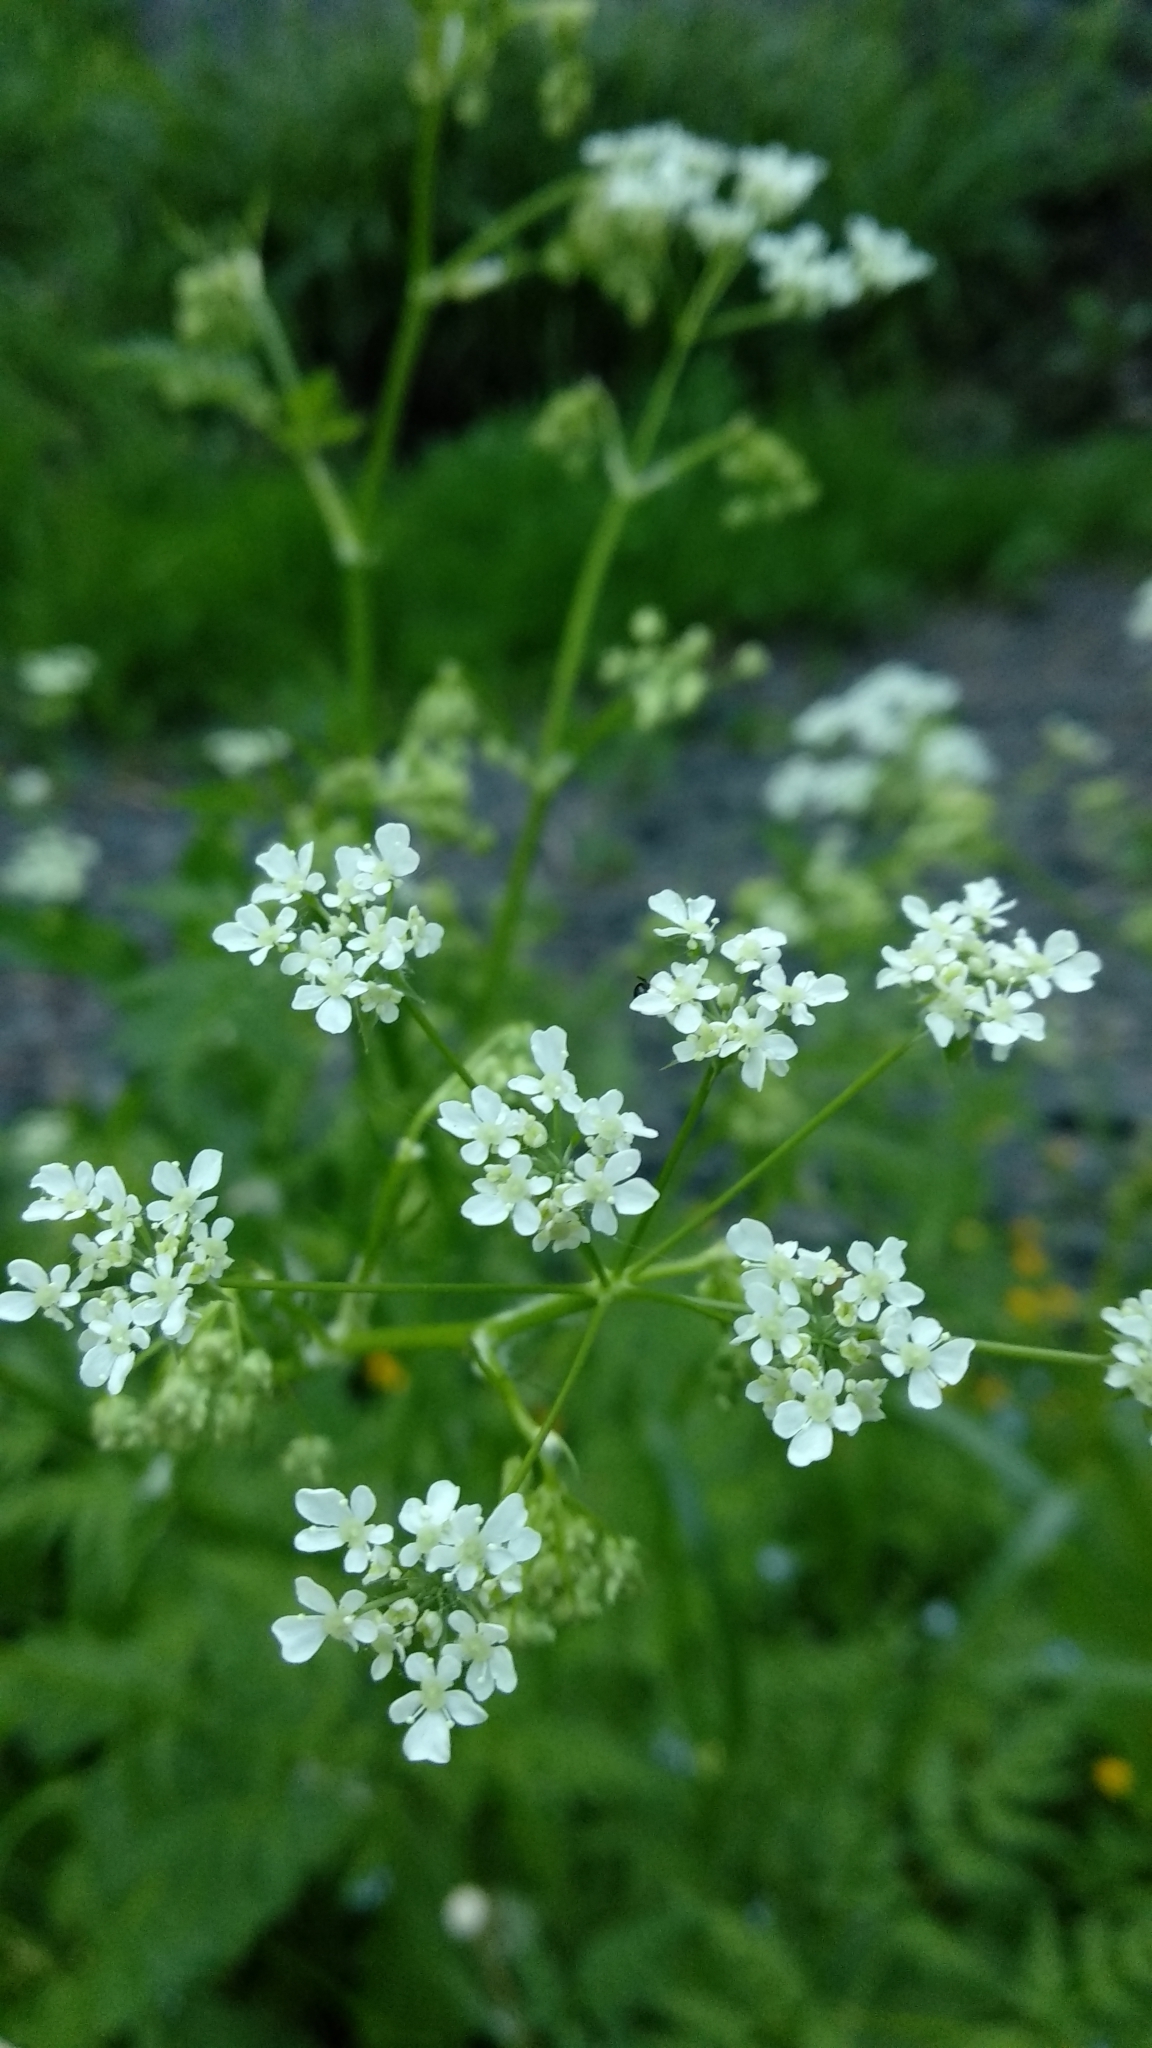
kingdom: Plantae
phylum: Tracheophyta
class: Magnoliopsida
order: Apiales
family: Apiaceae
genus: Anthriscus
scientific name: Anthriscus sylvestris
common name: Cow parsley
